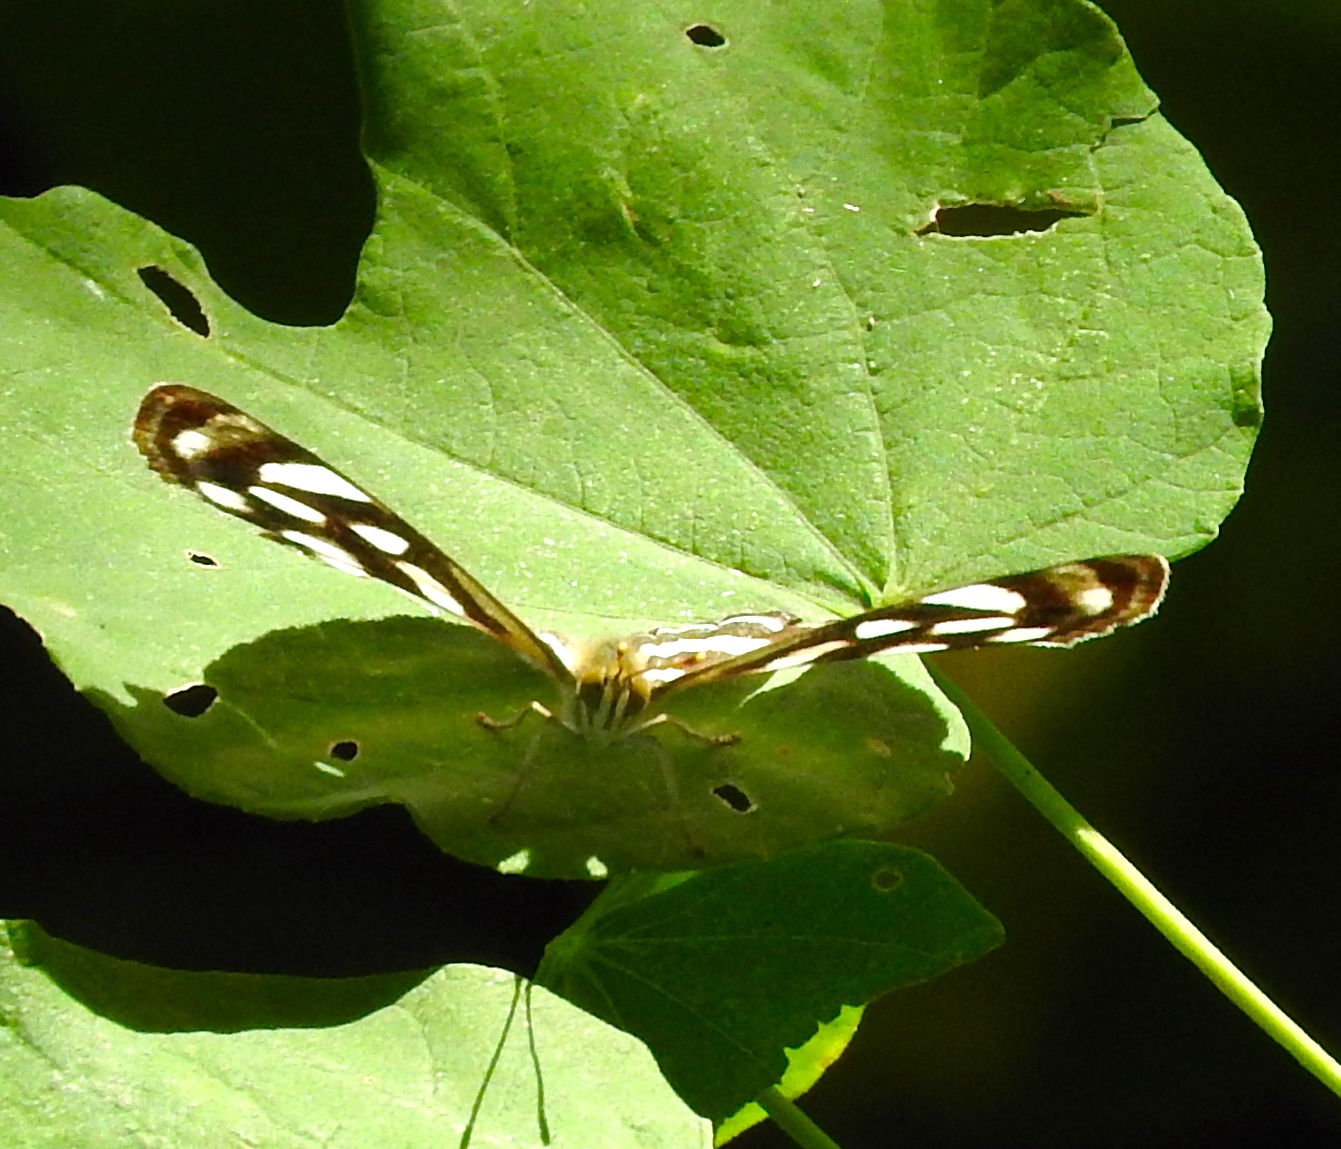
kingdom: Animalia
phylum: Arthropoda
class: Insecta
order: Lepidoptera
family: Nymphalidae
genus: Dynamine
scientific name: Dynamine mylitta
